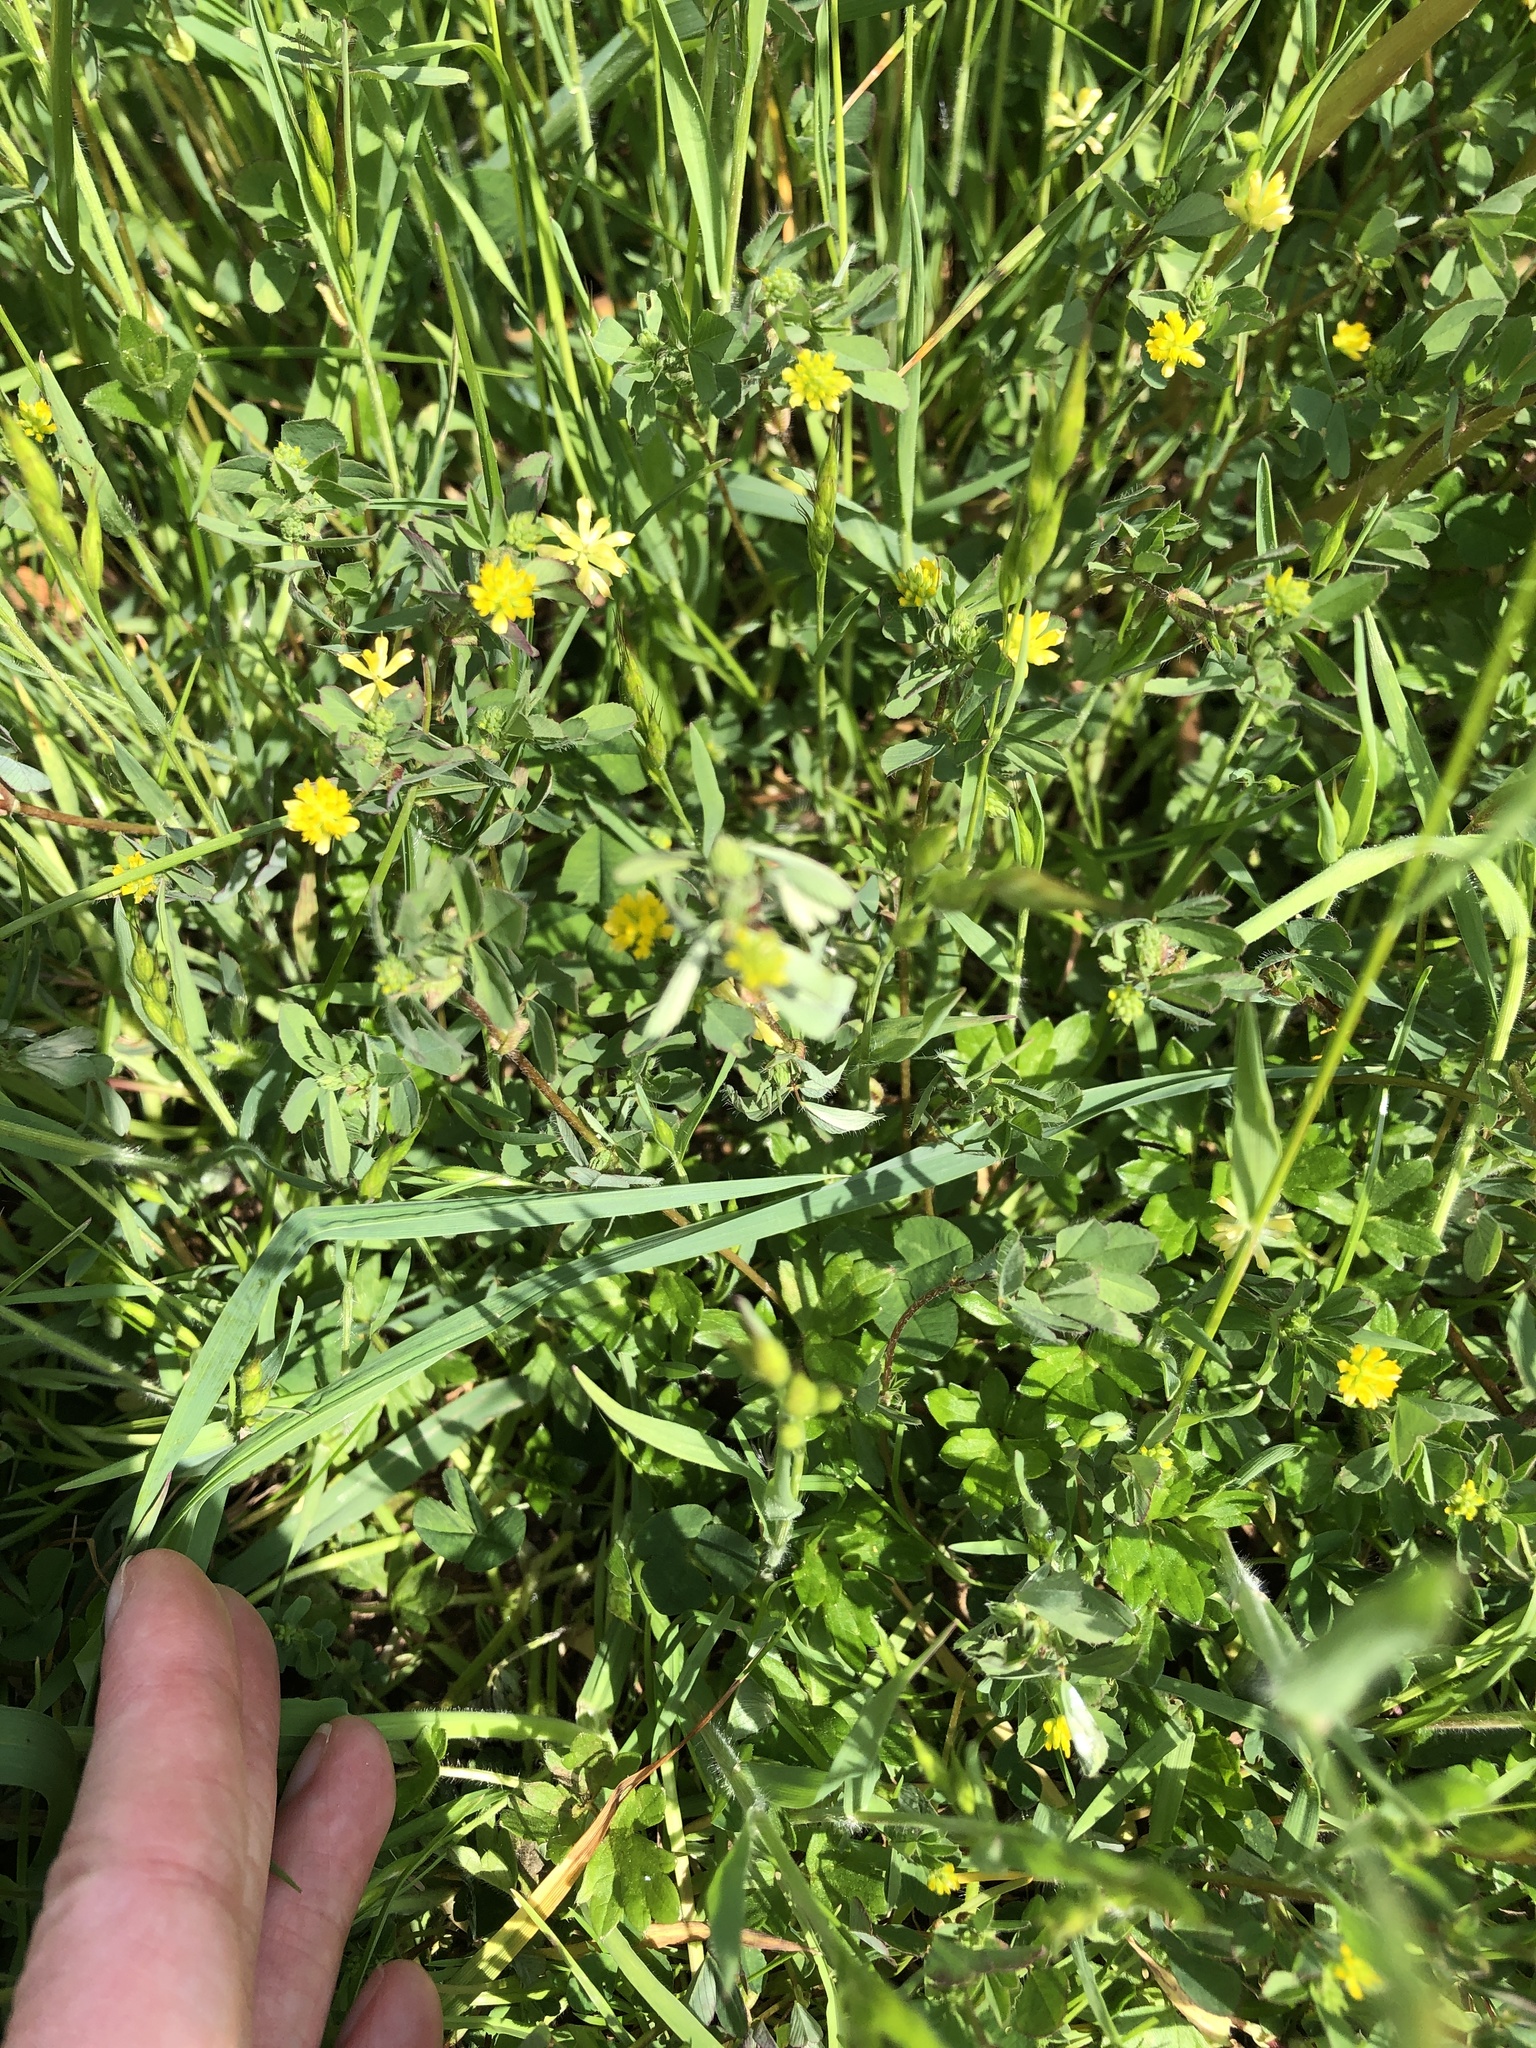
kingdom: Plantae
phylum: Tracheophyta
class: Magnoliopsida
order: Fabales
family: Fabaceae
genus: Trifolium
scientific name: Trifolium dubium
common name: Suckling clover
